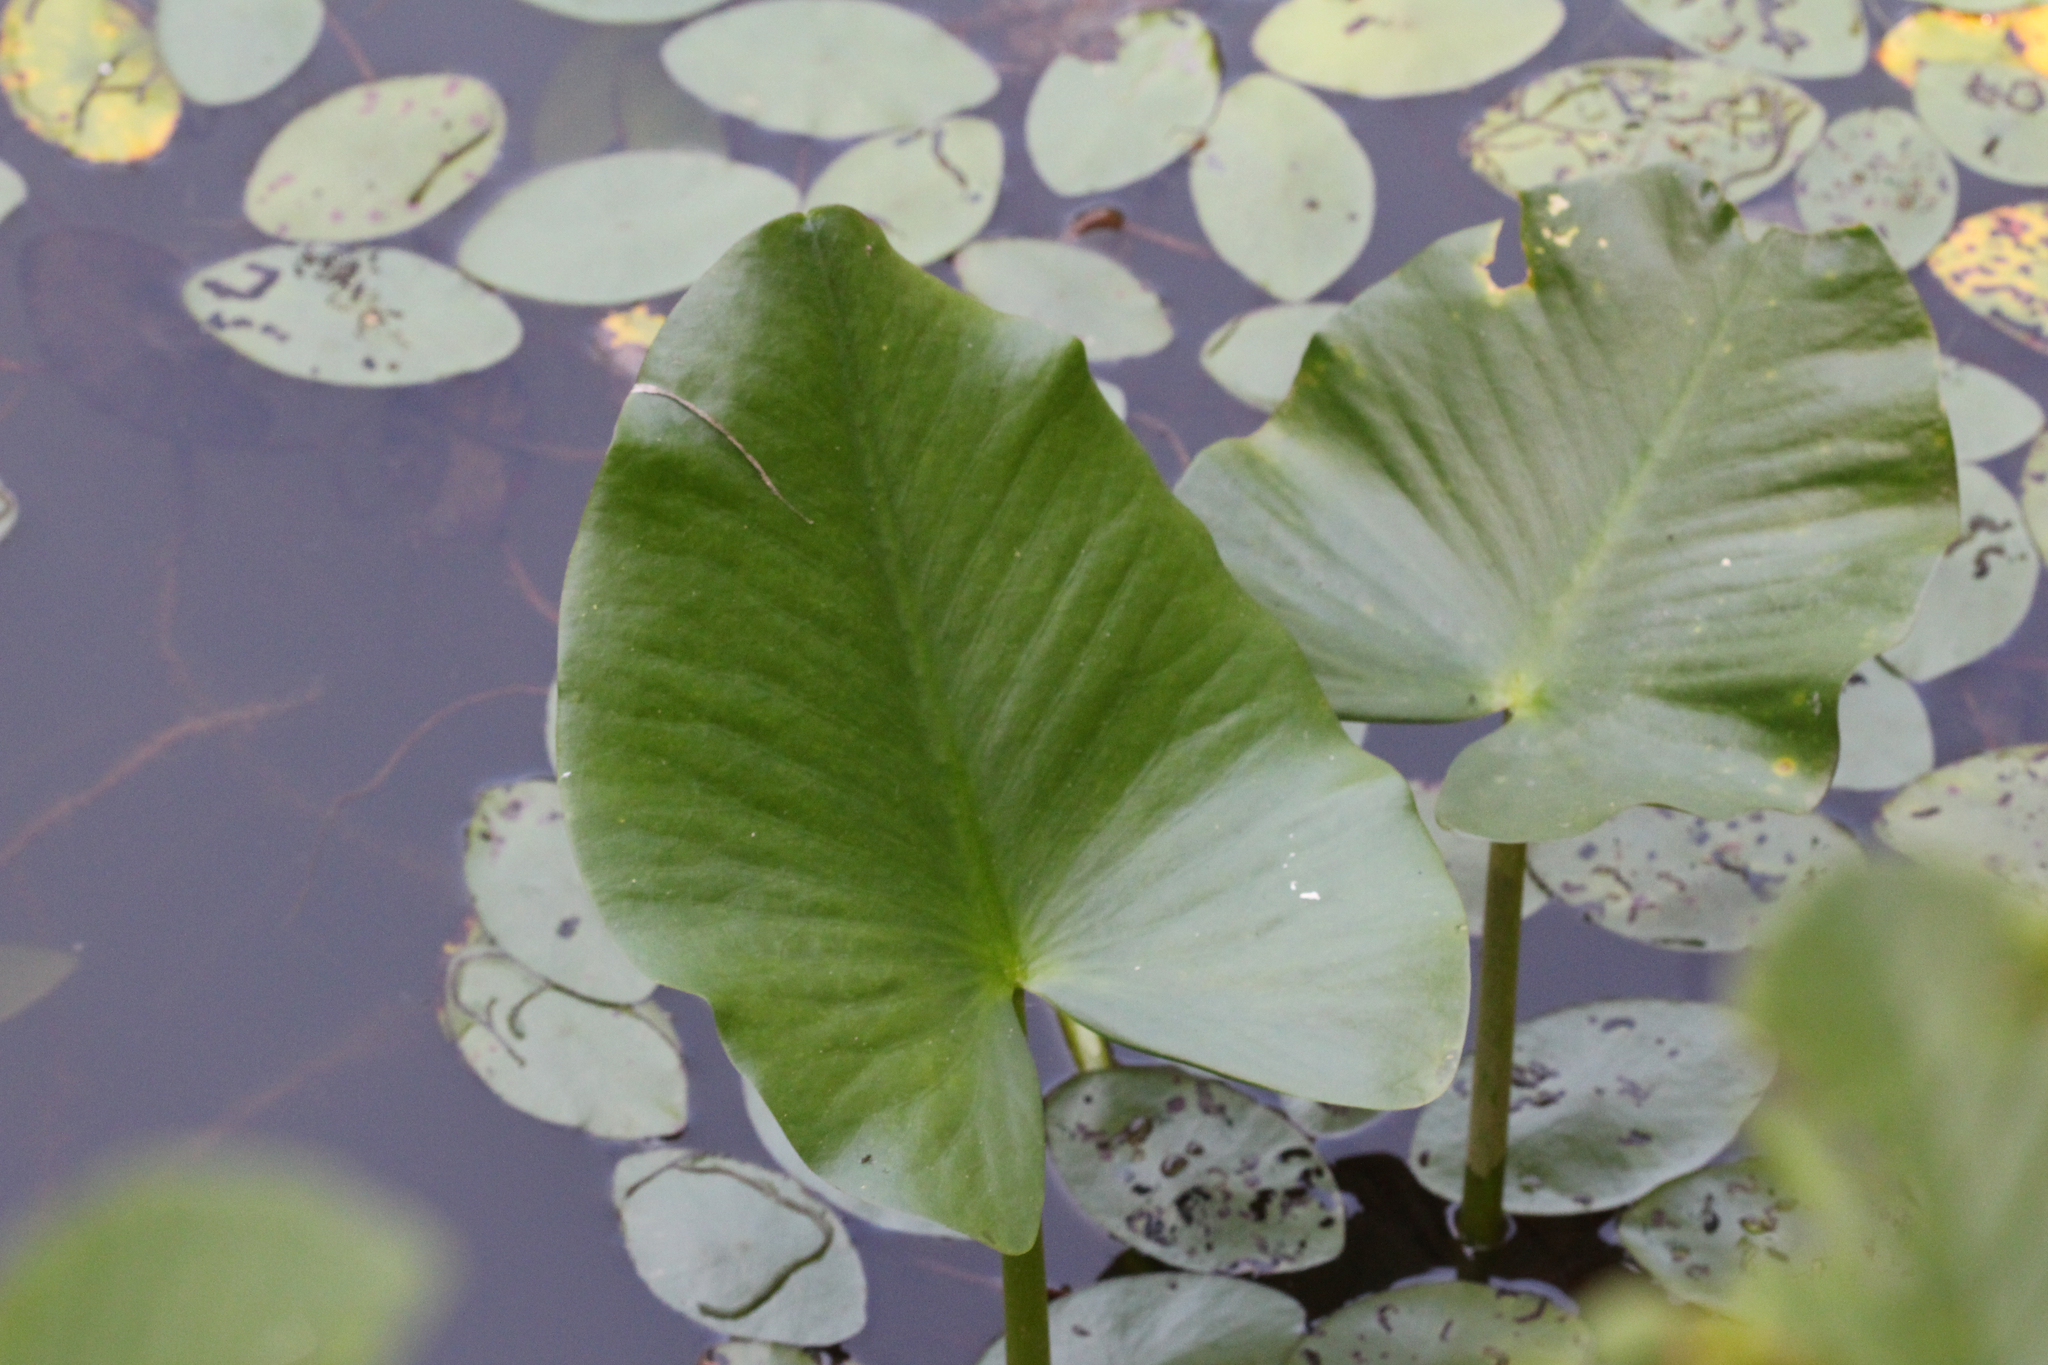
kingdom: Plantae
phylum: Tracheophyta
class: Magnoliopsida
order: Nymphaeales
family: Nymphaeaceae
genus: Nuphar
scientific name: Nuphar advena
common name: Spatter-dock
